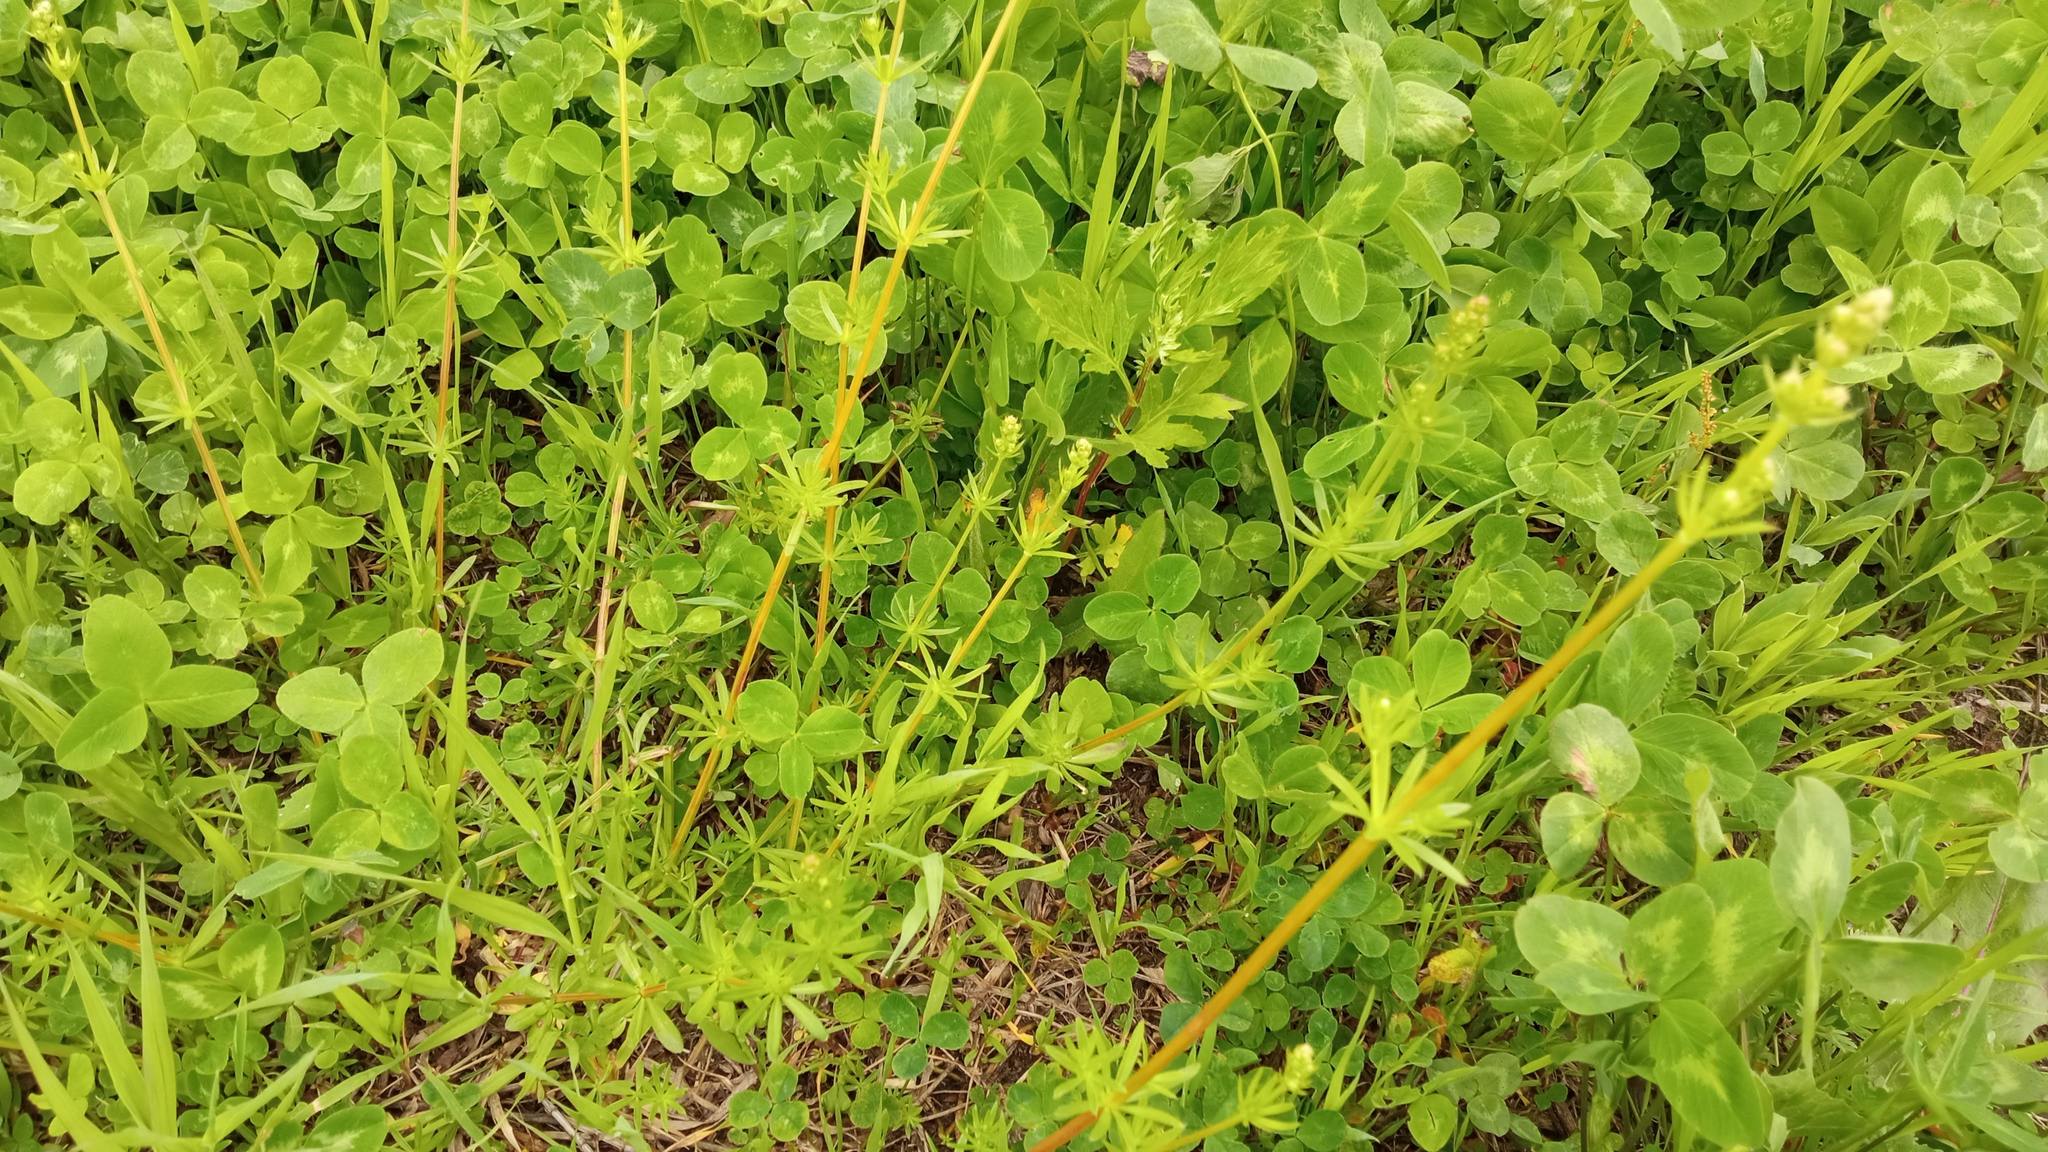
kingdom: Plantae
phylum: Tracheophyta
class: Magnoliopsida
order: Gentianales
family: Rubiaceae
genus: Galium
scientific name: Galium mollugo
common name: Hedge bedstraw
